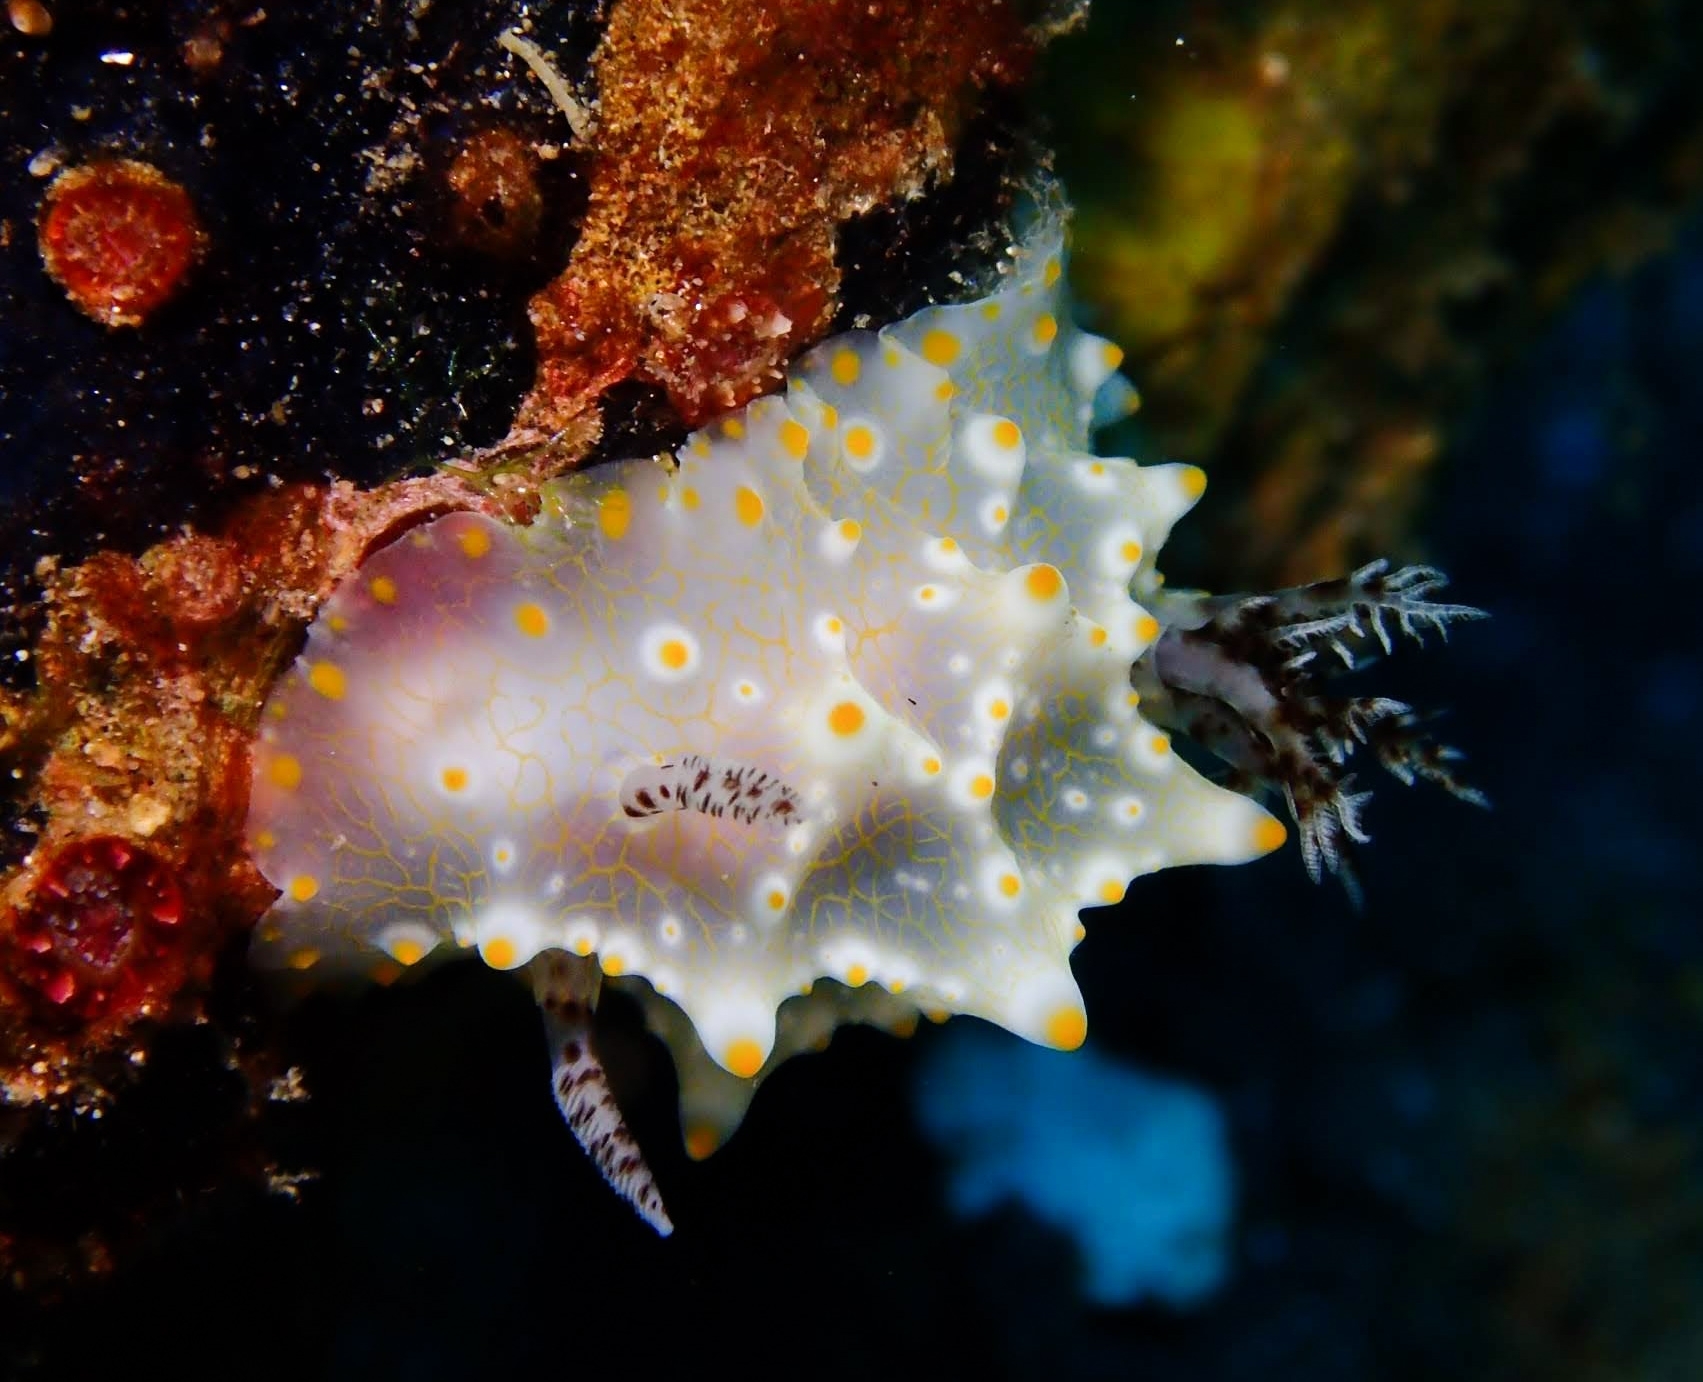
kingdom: Animalia
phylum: Mollusca
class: Gastropoda
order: Nudibranchia
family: Discodorididae
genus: Halgerda
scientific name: Halgerda batangas
